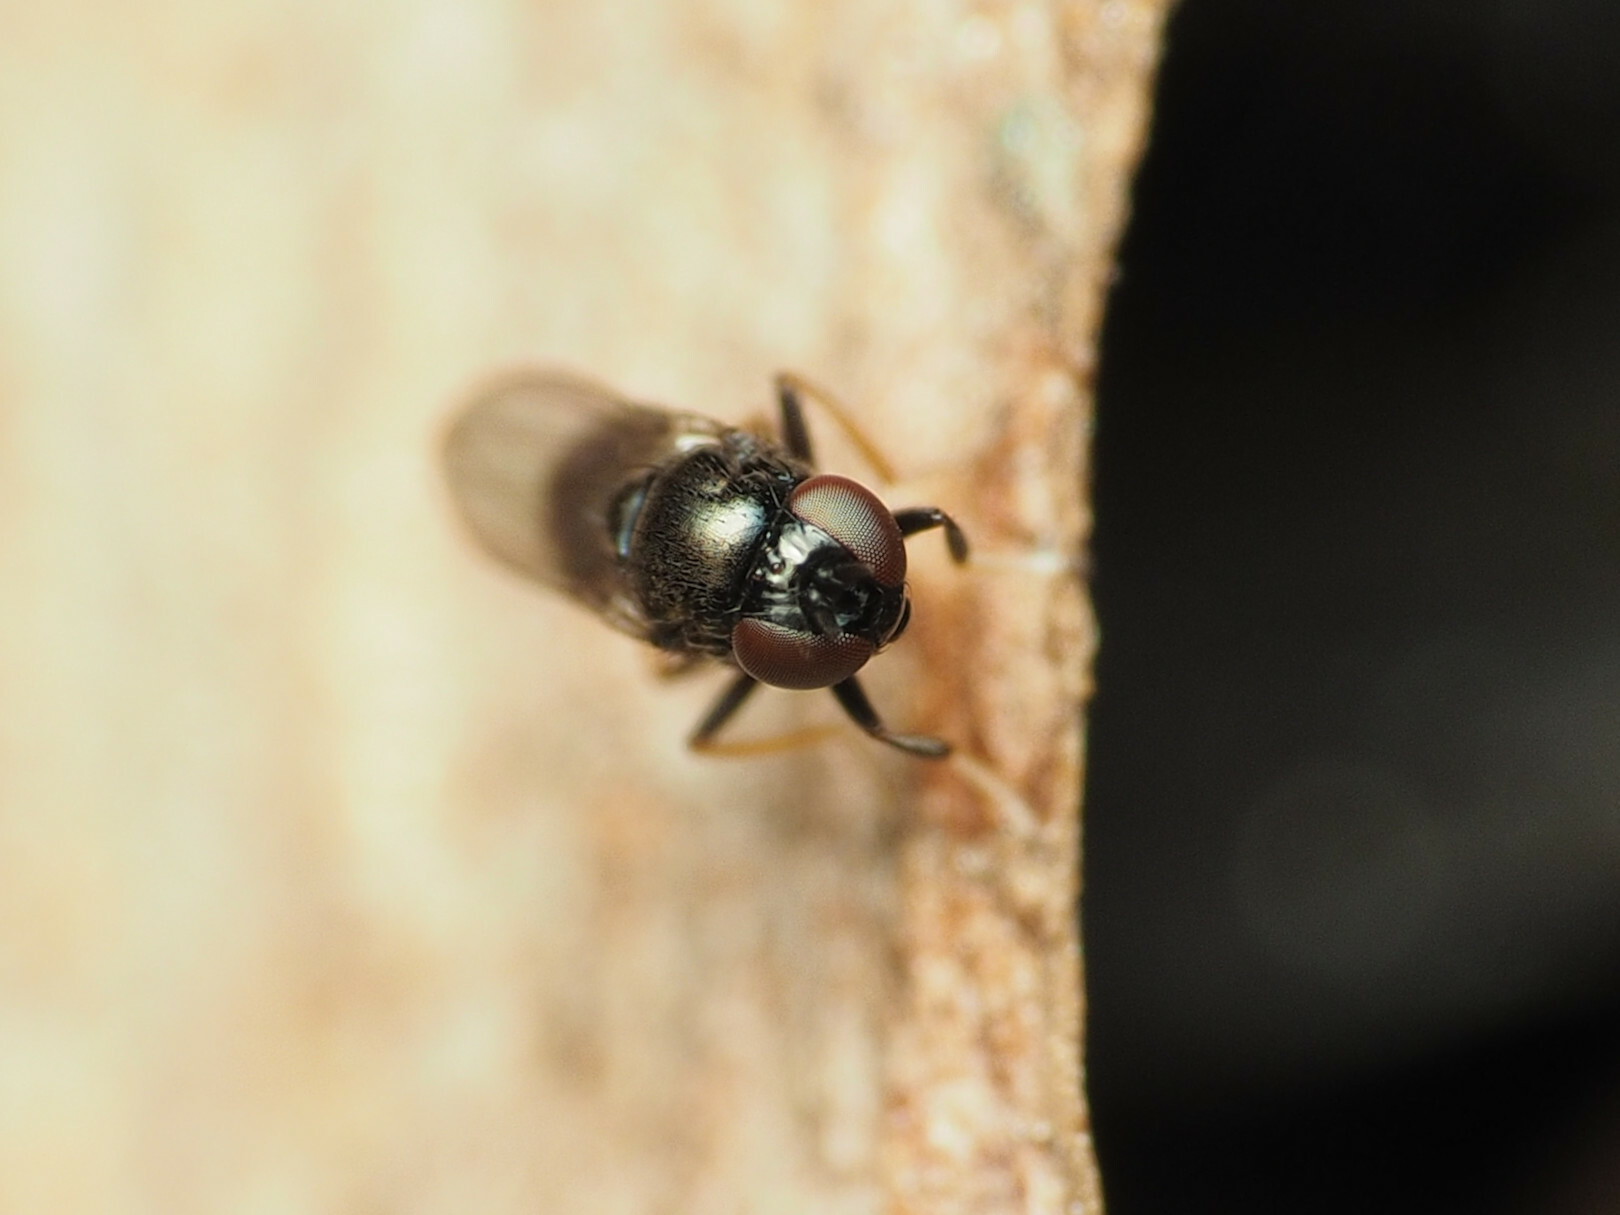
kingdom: Animalia
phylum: Arthropoda
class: Insecta
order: Diptera
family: Ephydridae
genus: Athyroglossa
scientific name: Athyroglossa glaphyropus
